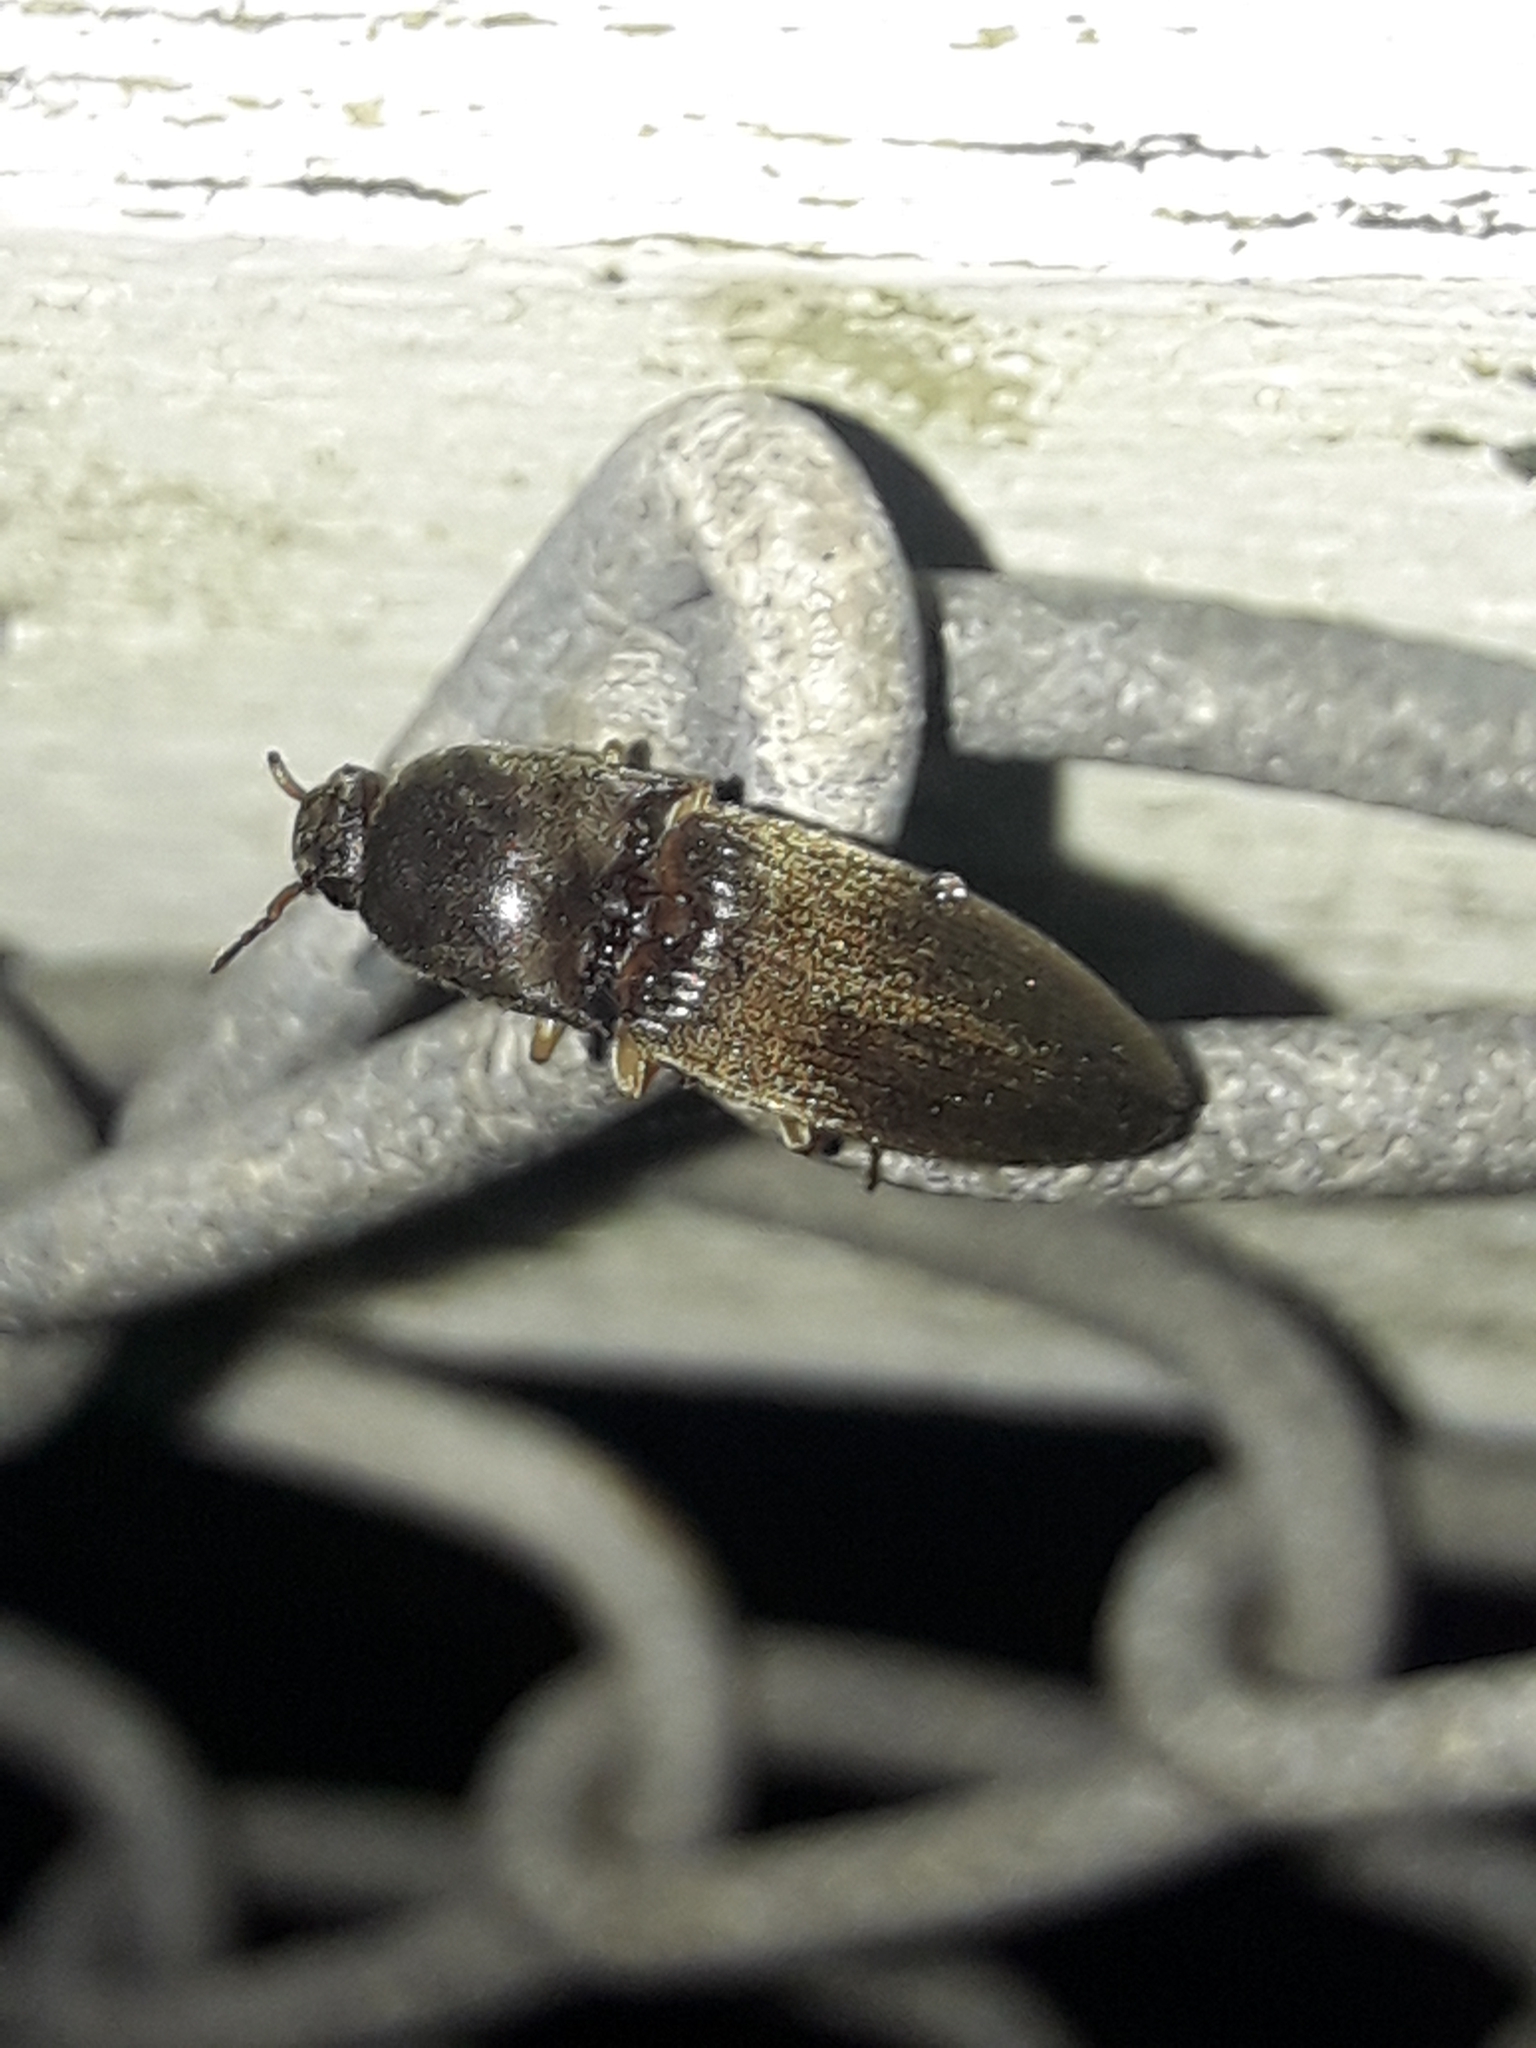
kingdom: Animalia
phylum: Arthropoda
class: Insecta
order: Coleoptera
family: Elateridae
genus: Conoderus
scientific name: Conoderus exsul
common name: Click beetle
